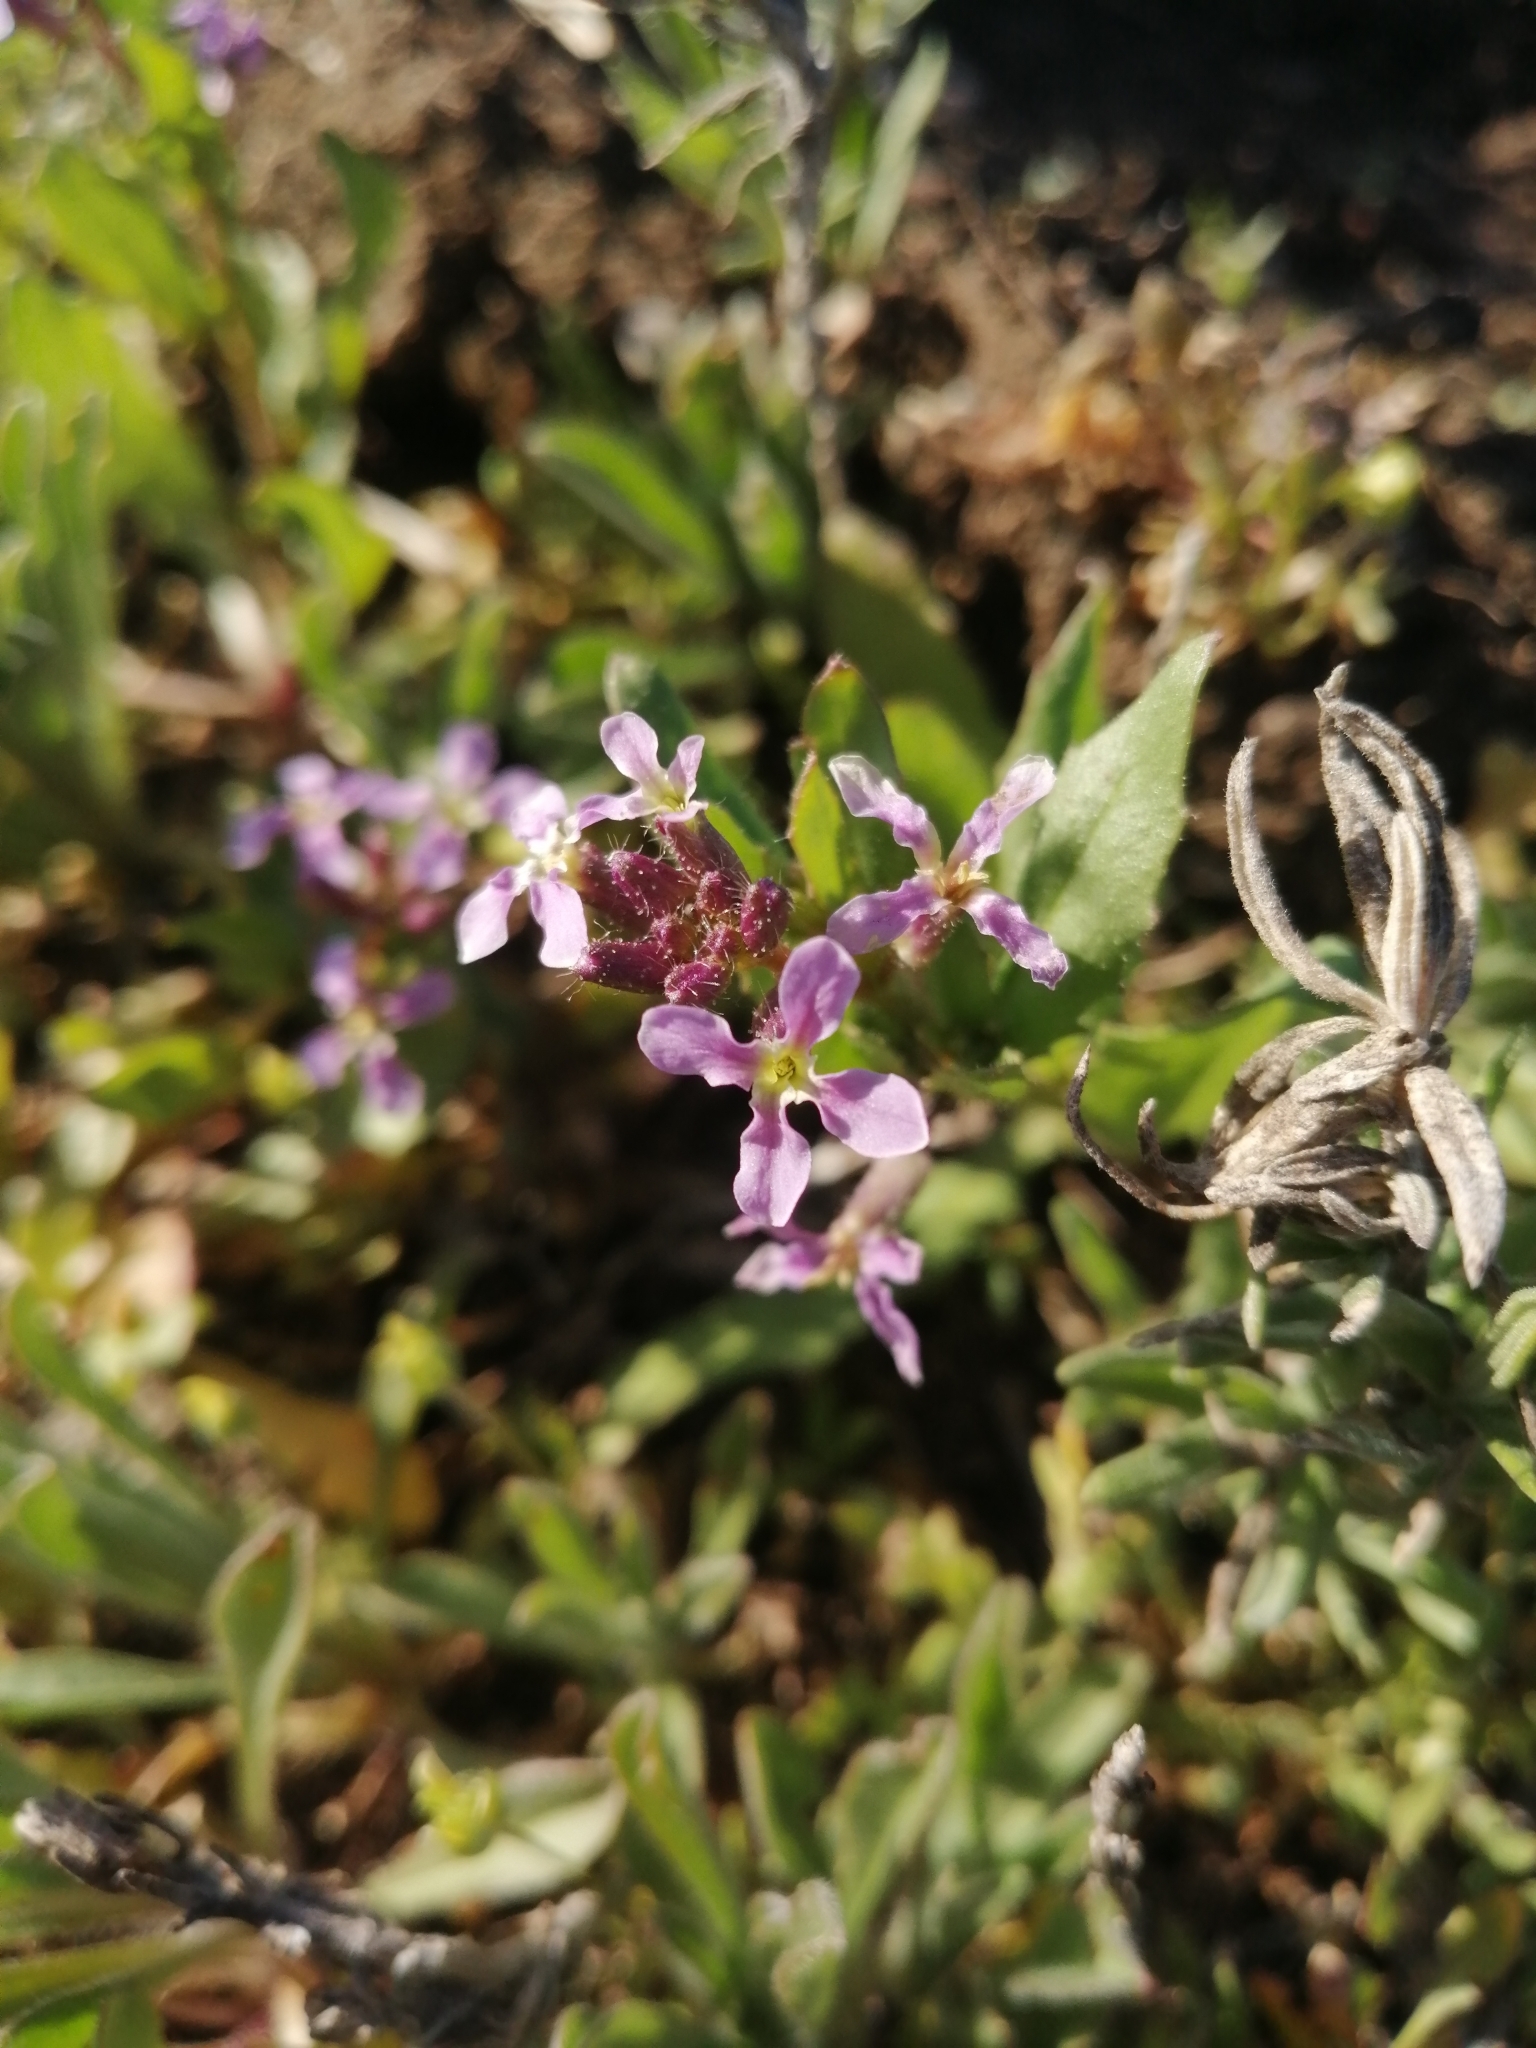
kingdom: Plantae
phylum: Tracheophyta
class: Magnoliopsida
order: Brassicales
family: Brassicaceae
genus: Chorispora
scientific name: Chorispora tenella
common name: Crossflower
